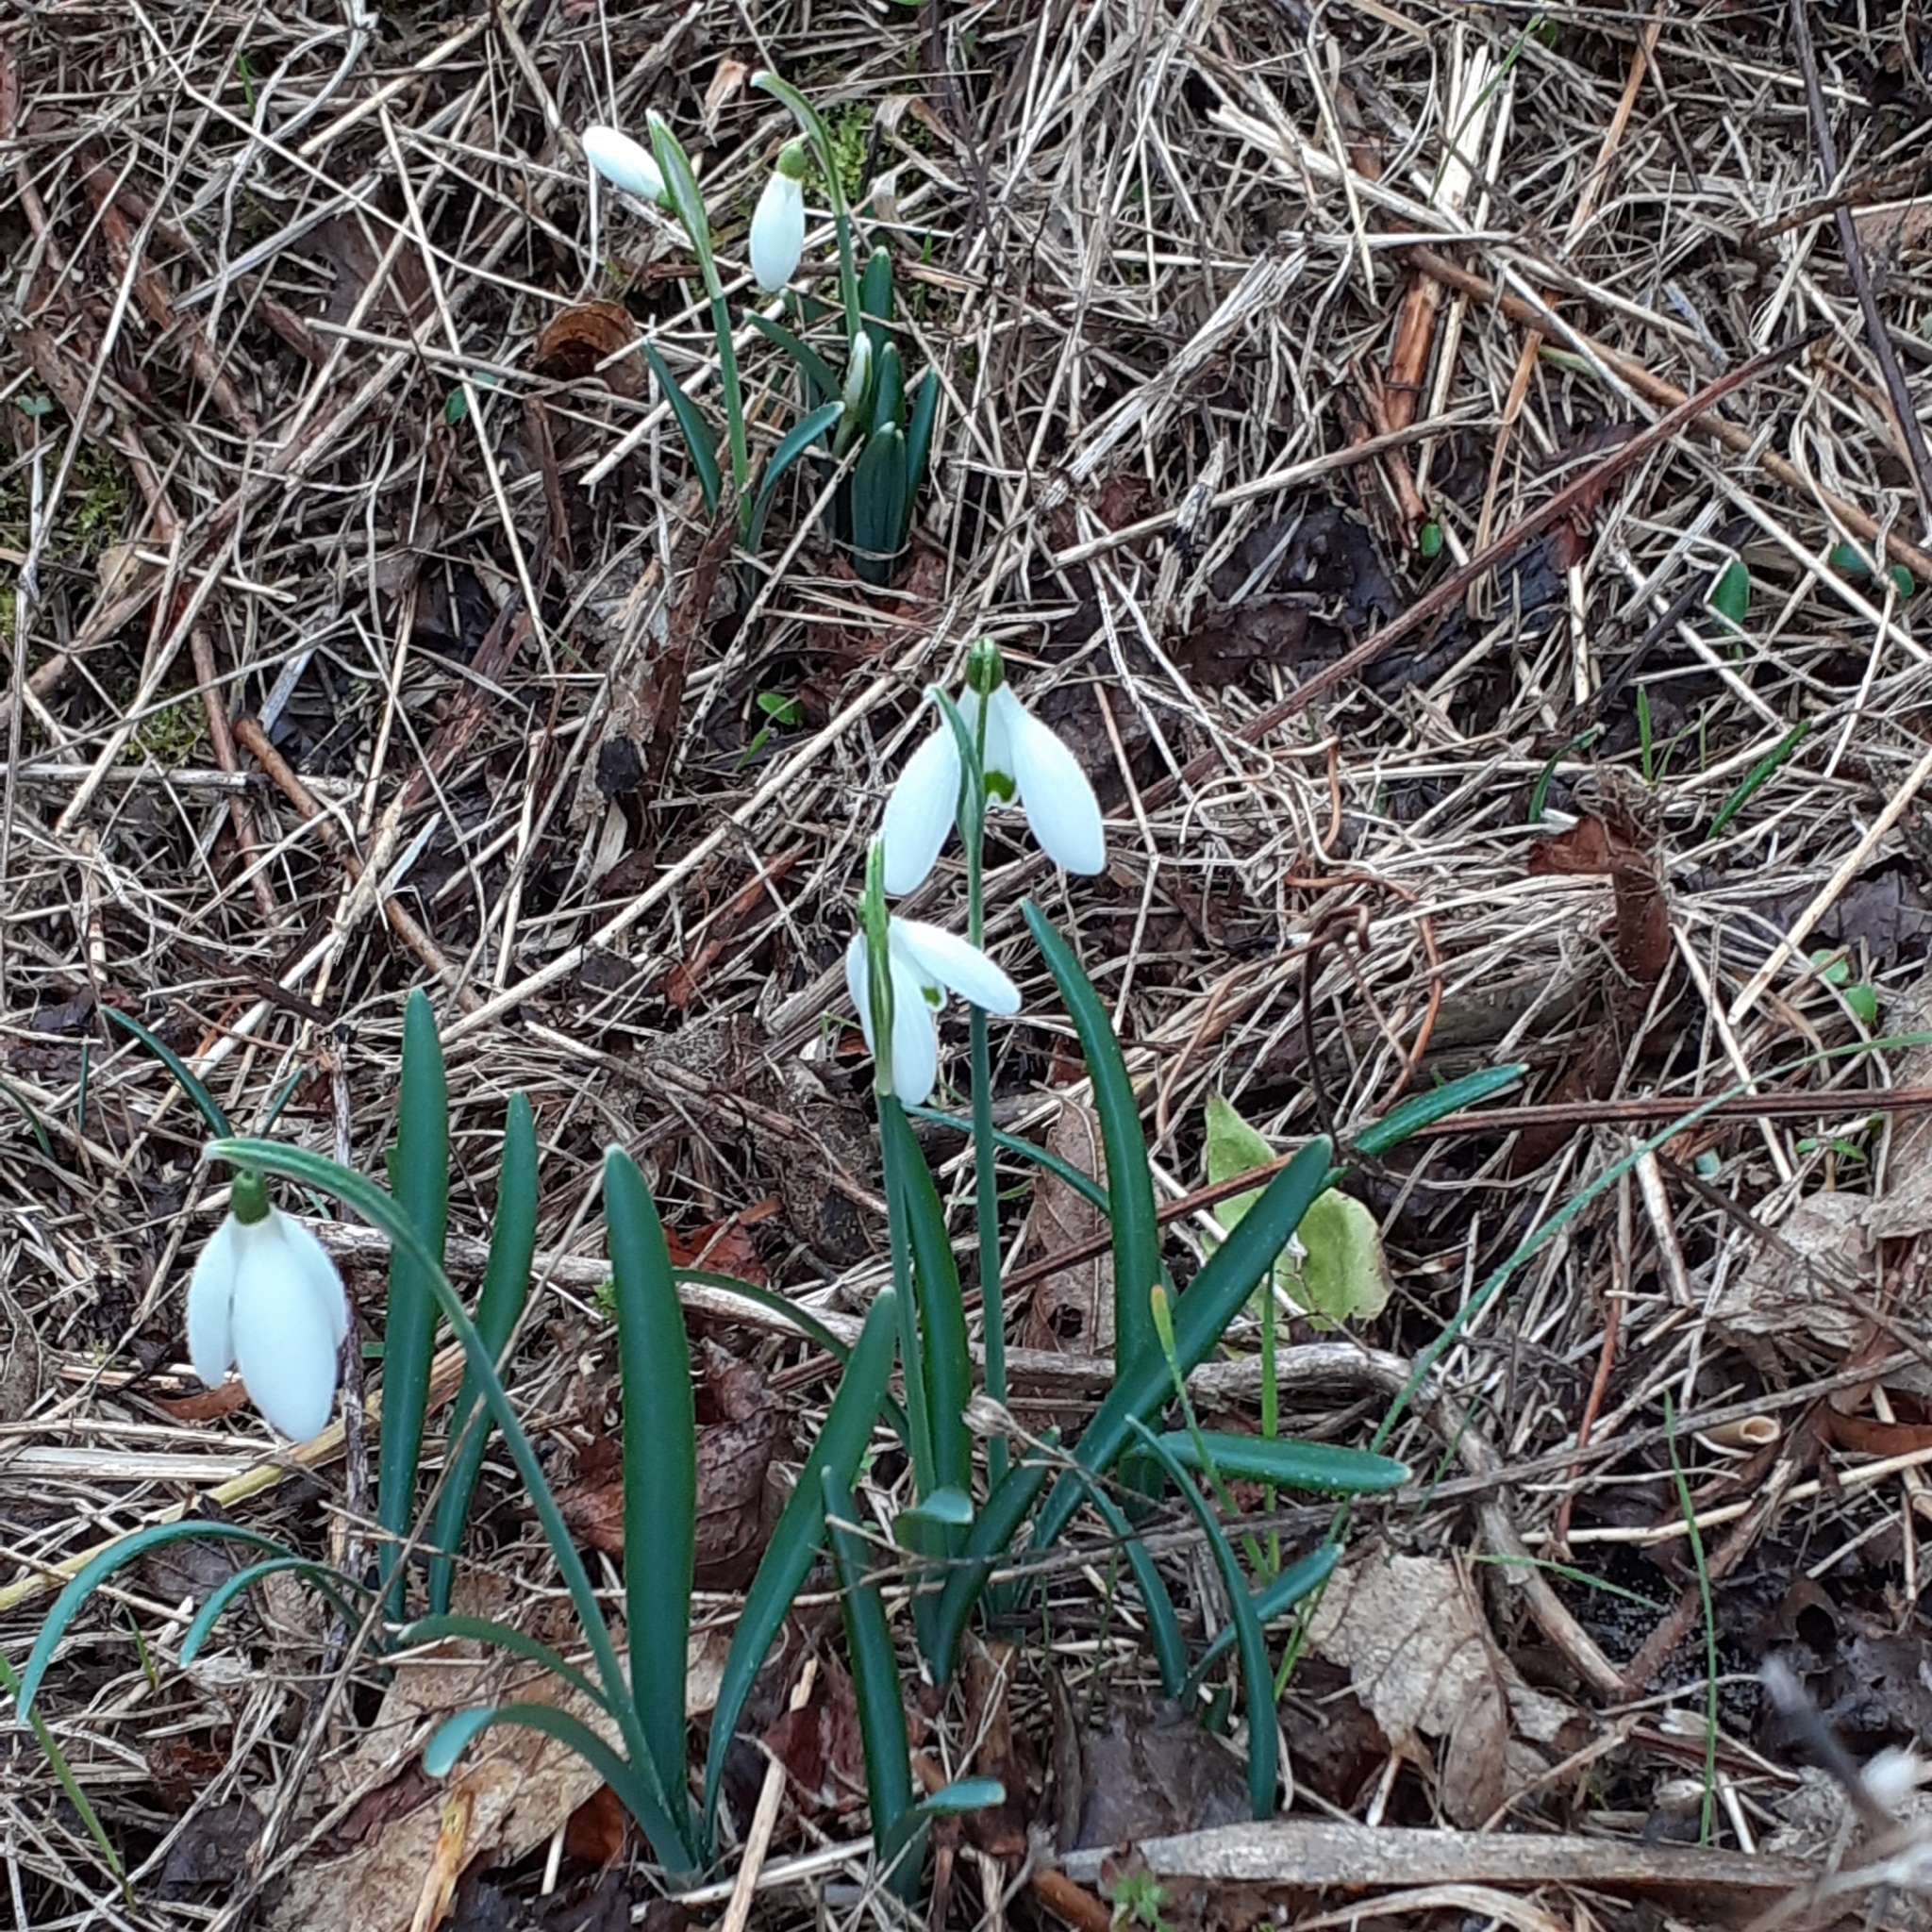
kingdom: Plantae
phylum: Tracheophyta
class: Liliopsida
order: Asparagales
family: Amaryllidaceae
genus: Galanthus
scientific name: Galanthus nivalis
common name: Snowdrop
